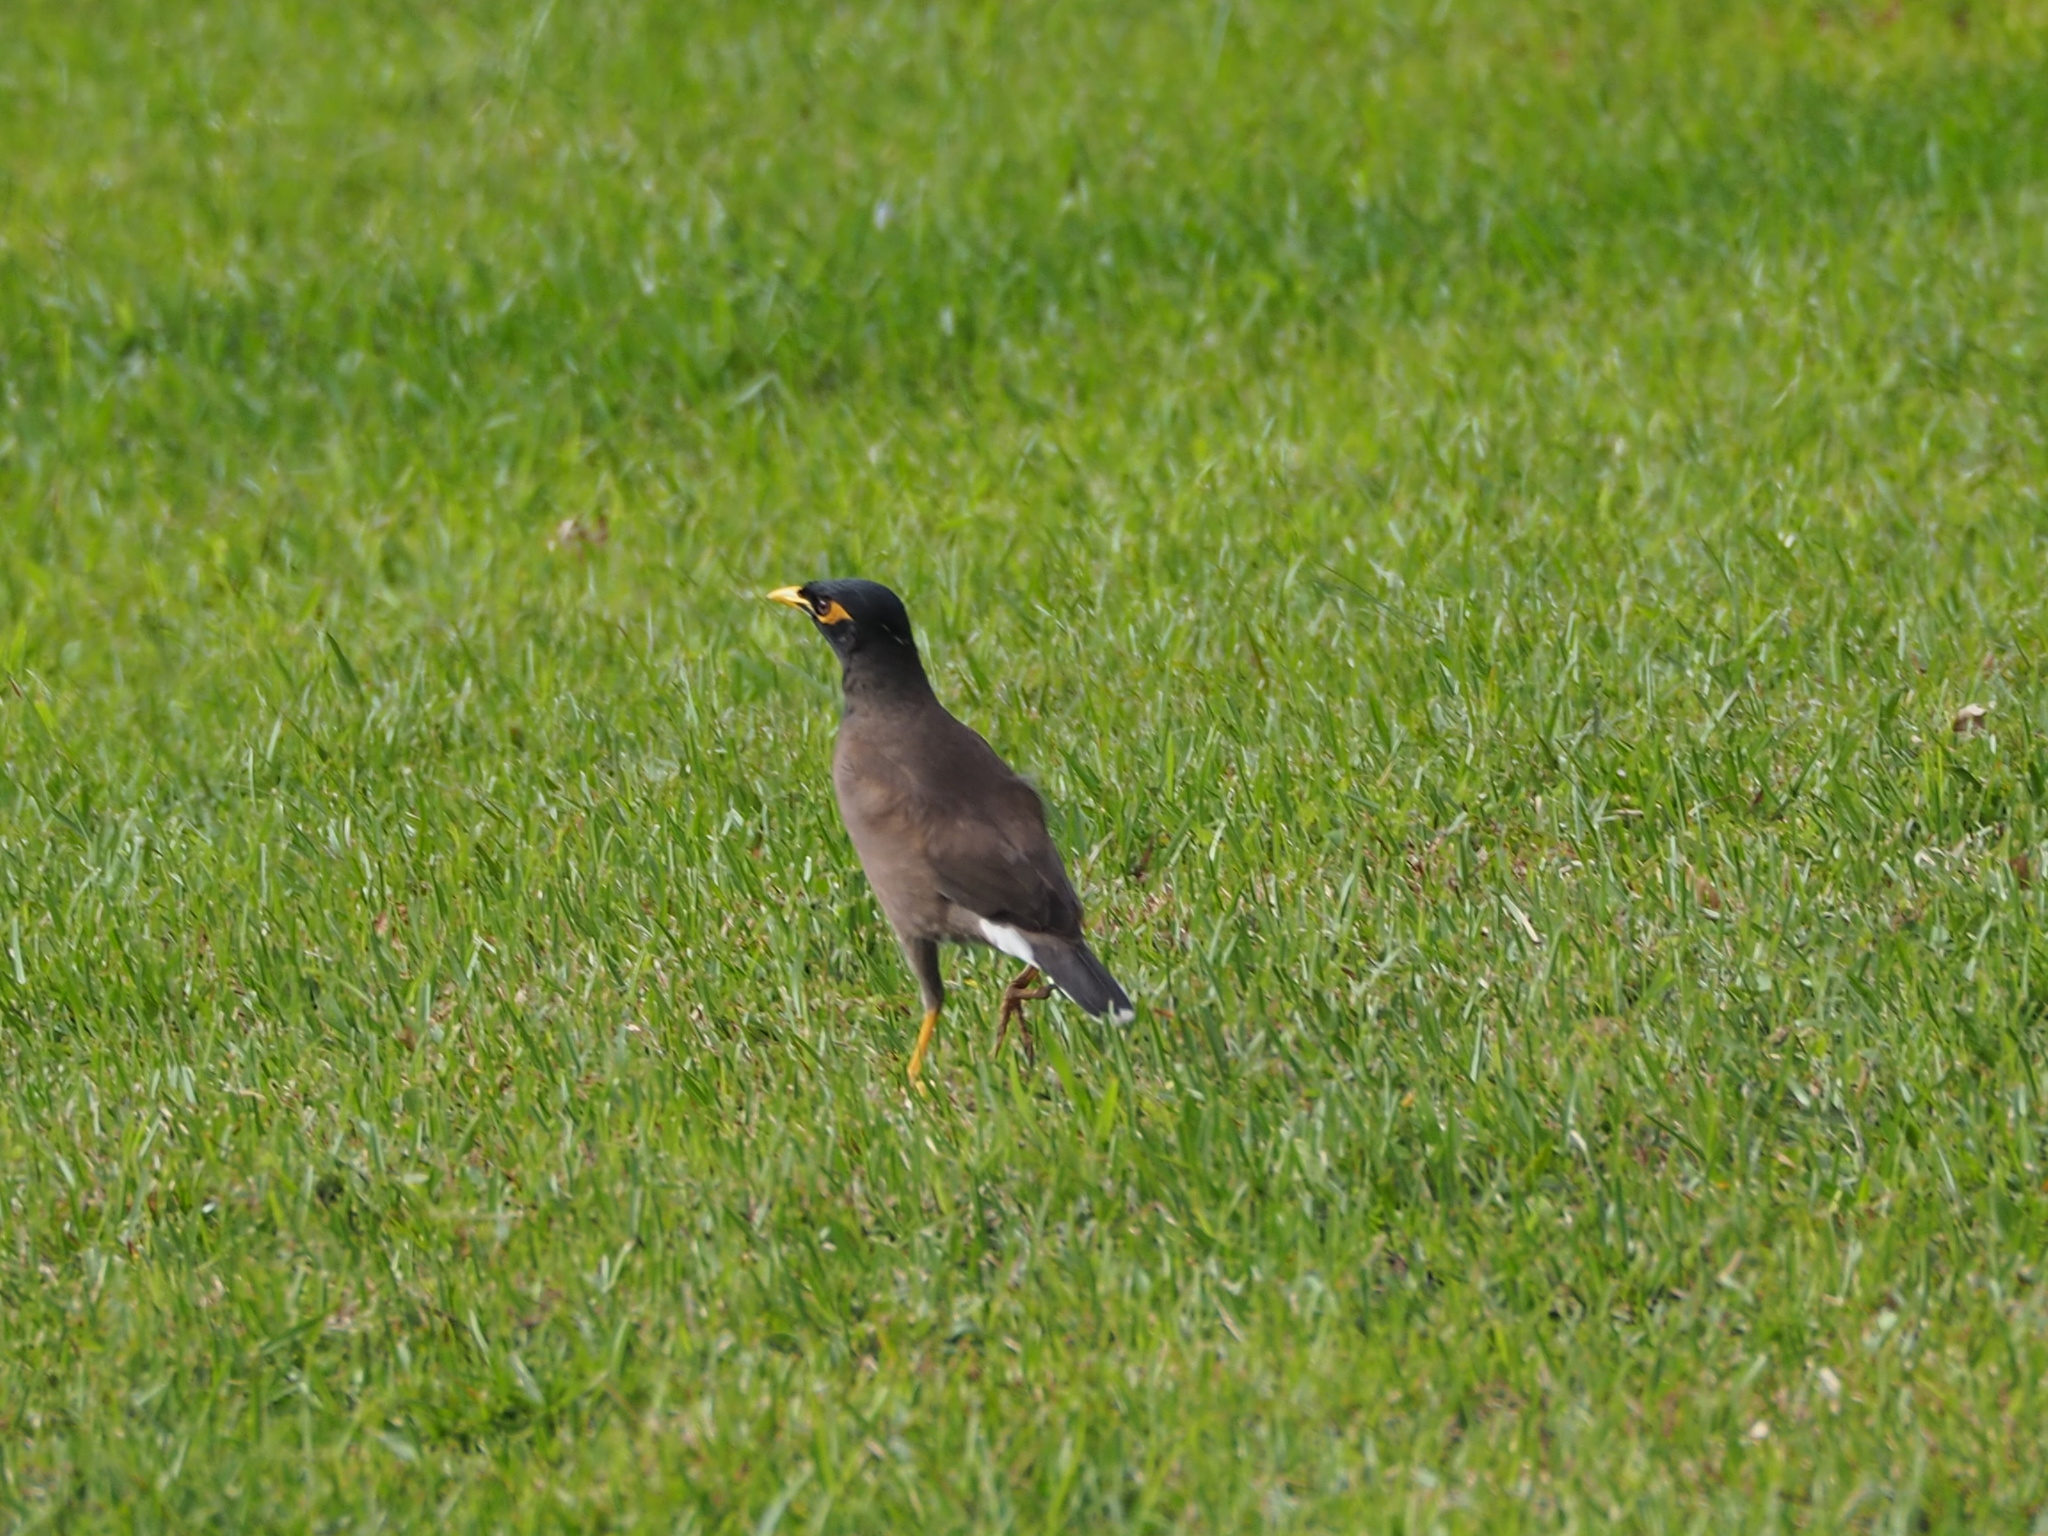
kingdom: Animalia
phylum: Chordata
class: Aves
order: Passeriformes
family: Sturnidae
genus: Acridotheres
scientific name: Acridotheres tristis
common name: Common myna
